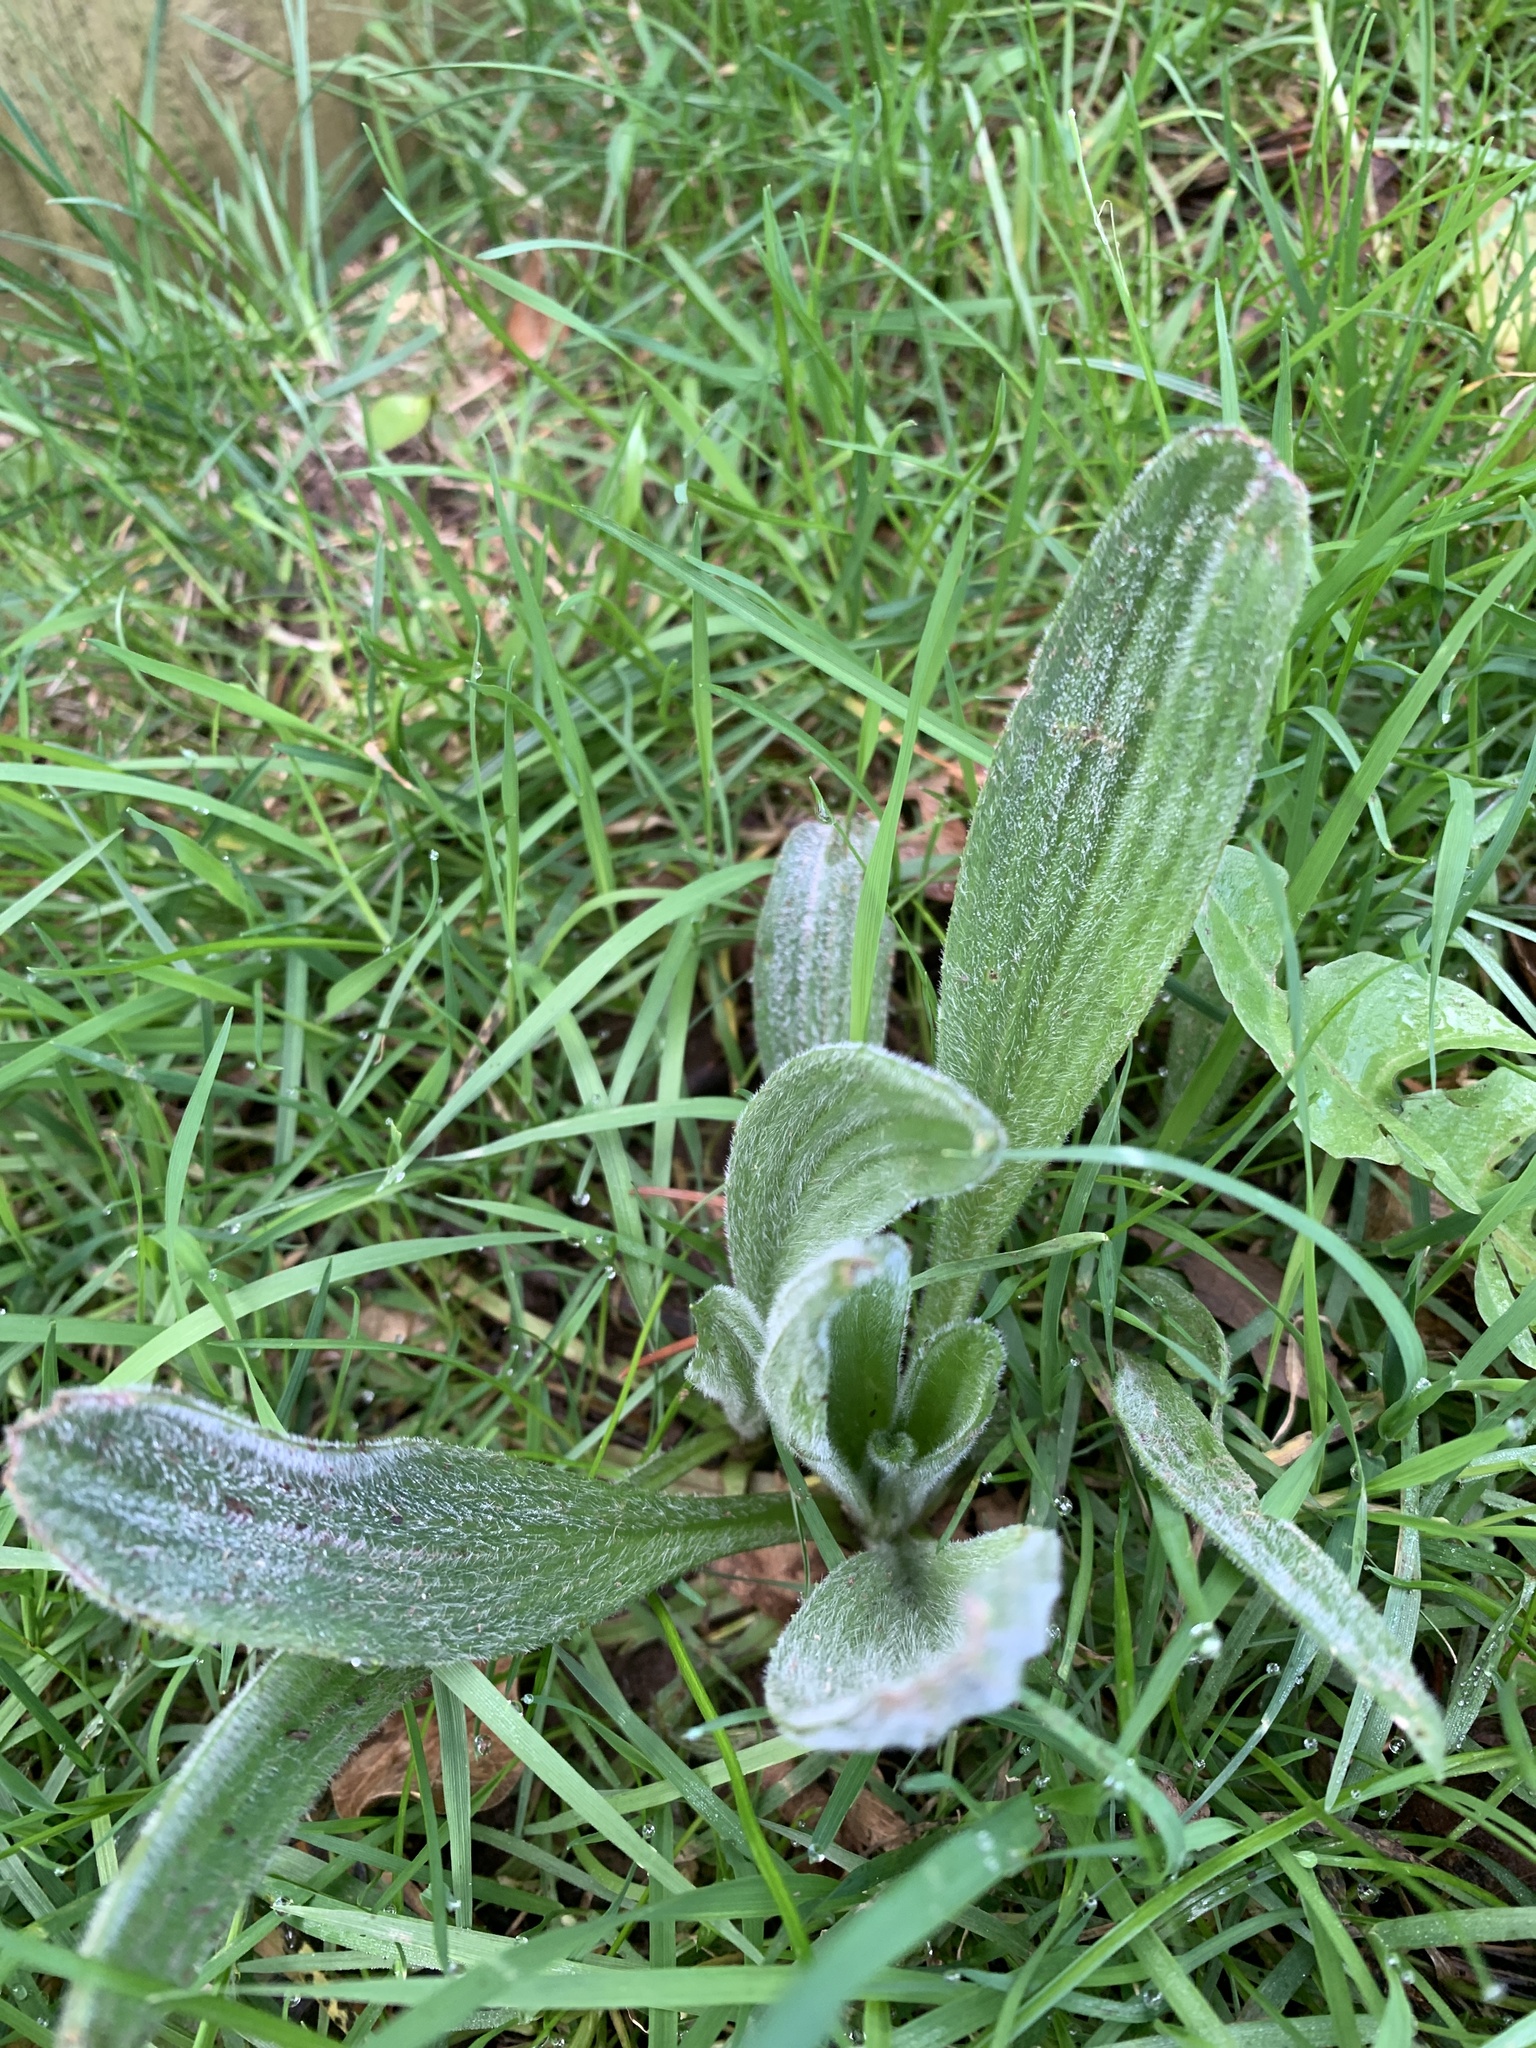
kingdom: Plantae
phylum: Tracheophyta
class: Magnoliopsida
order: Lamiales
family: Plantaginaceae
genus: Plantago
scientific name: Plantago lanceolata
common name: Ribwort plantain
